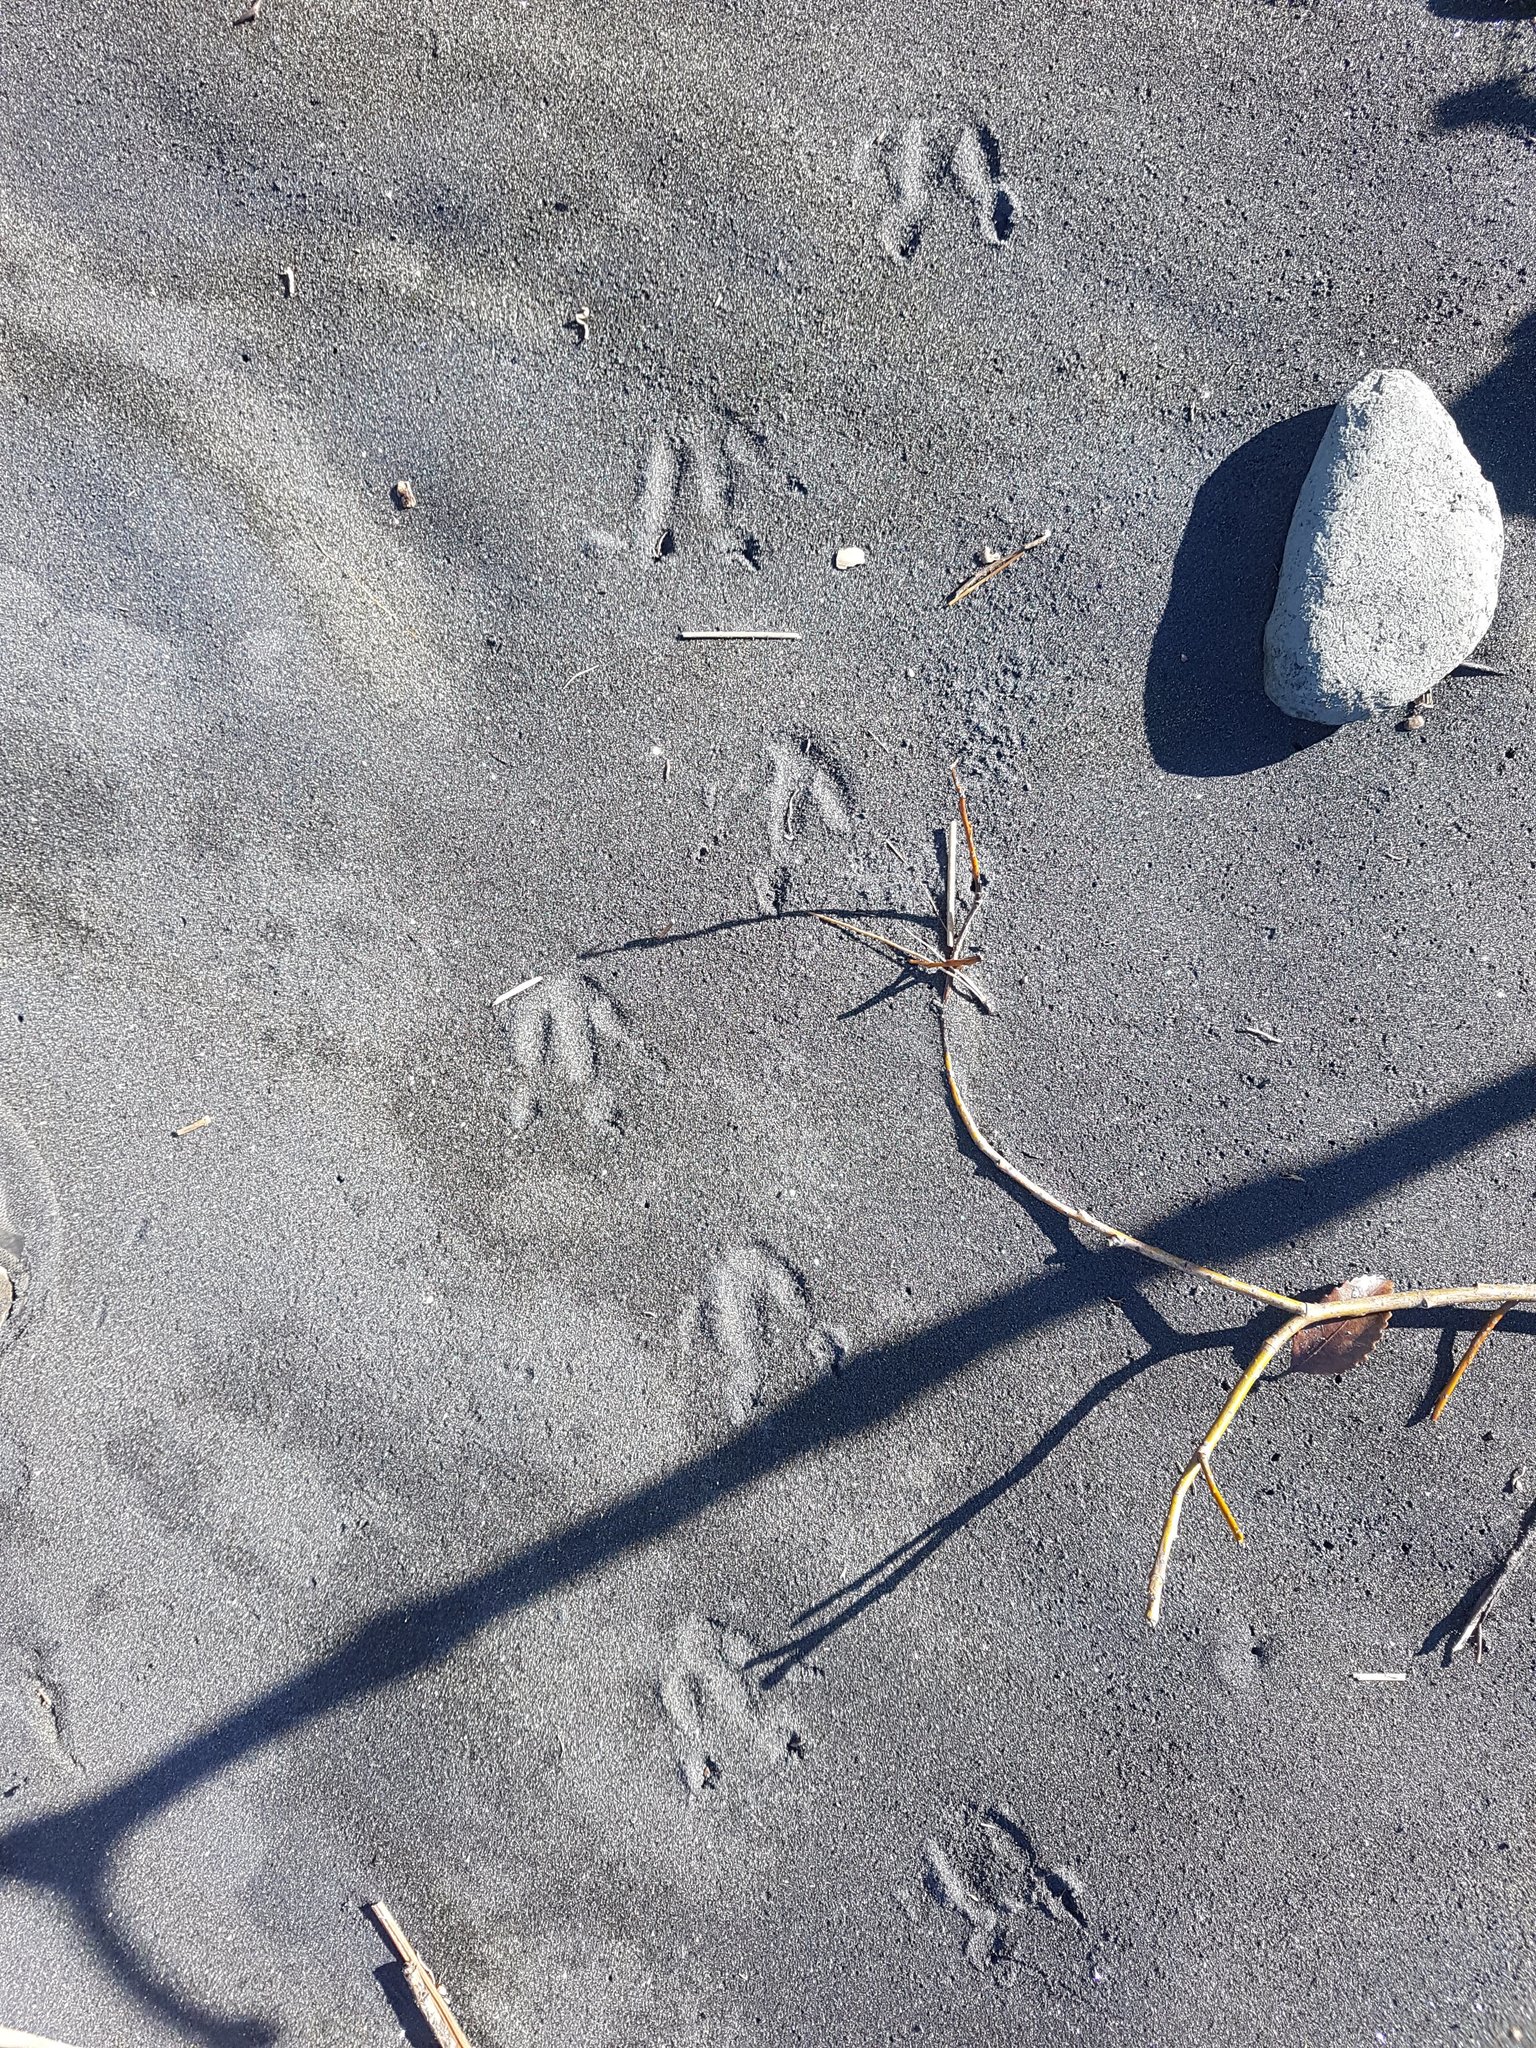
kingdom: Animalia
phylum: Chordata
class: Aves
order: Sphenisciformes
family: Spheniscidae
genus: Eudyptula
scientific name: Eudyptula minor
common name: Little penguin
